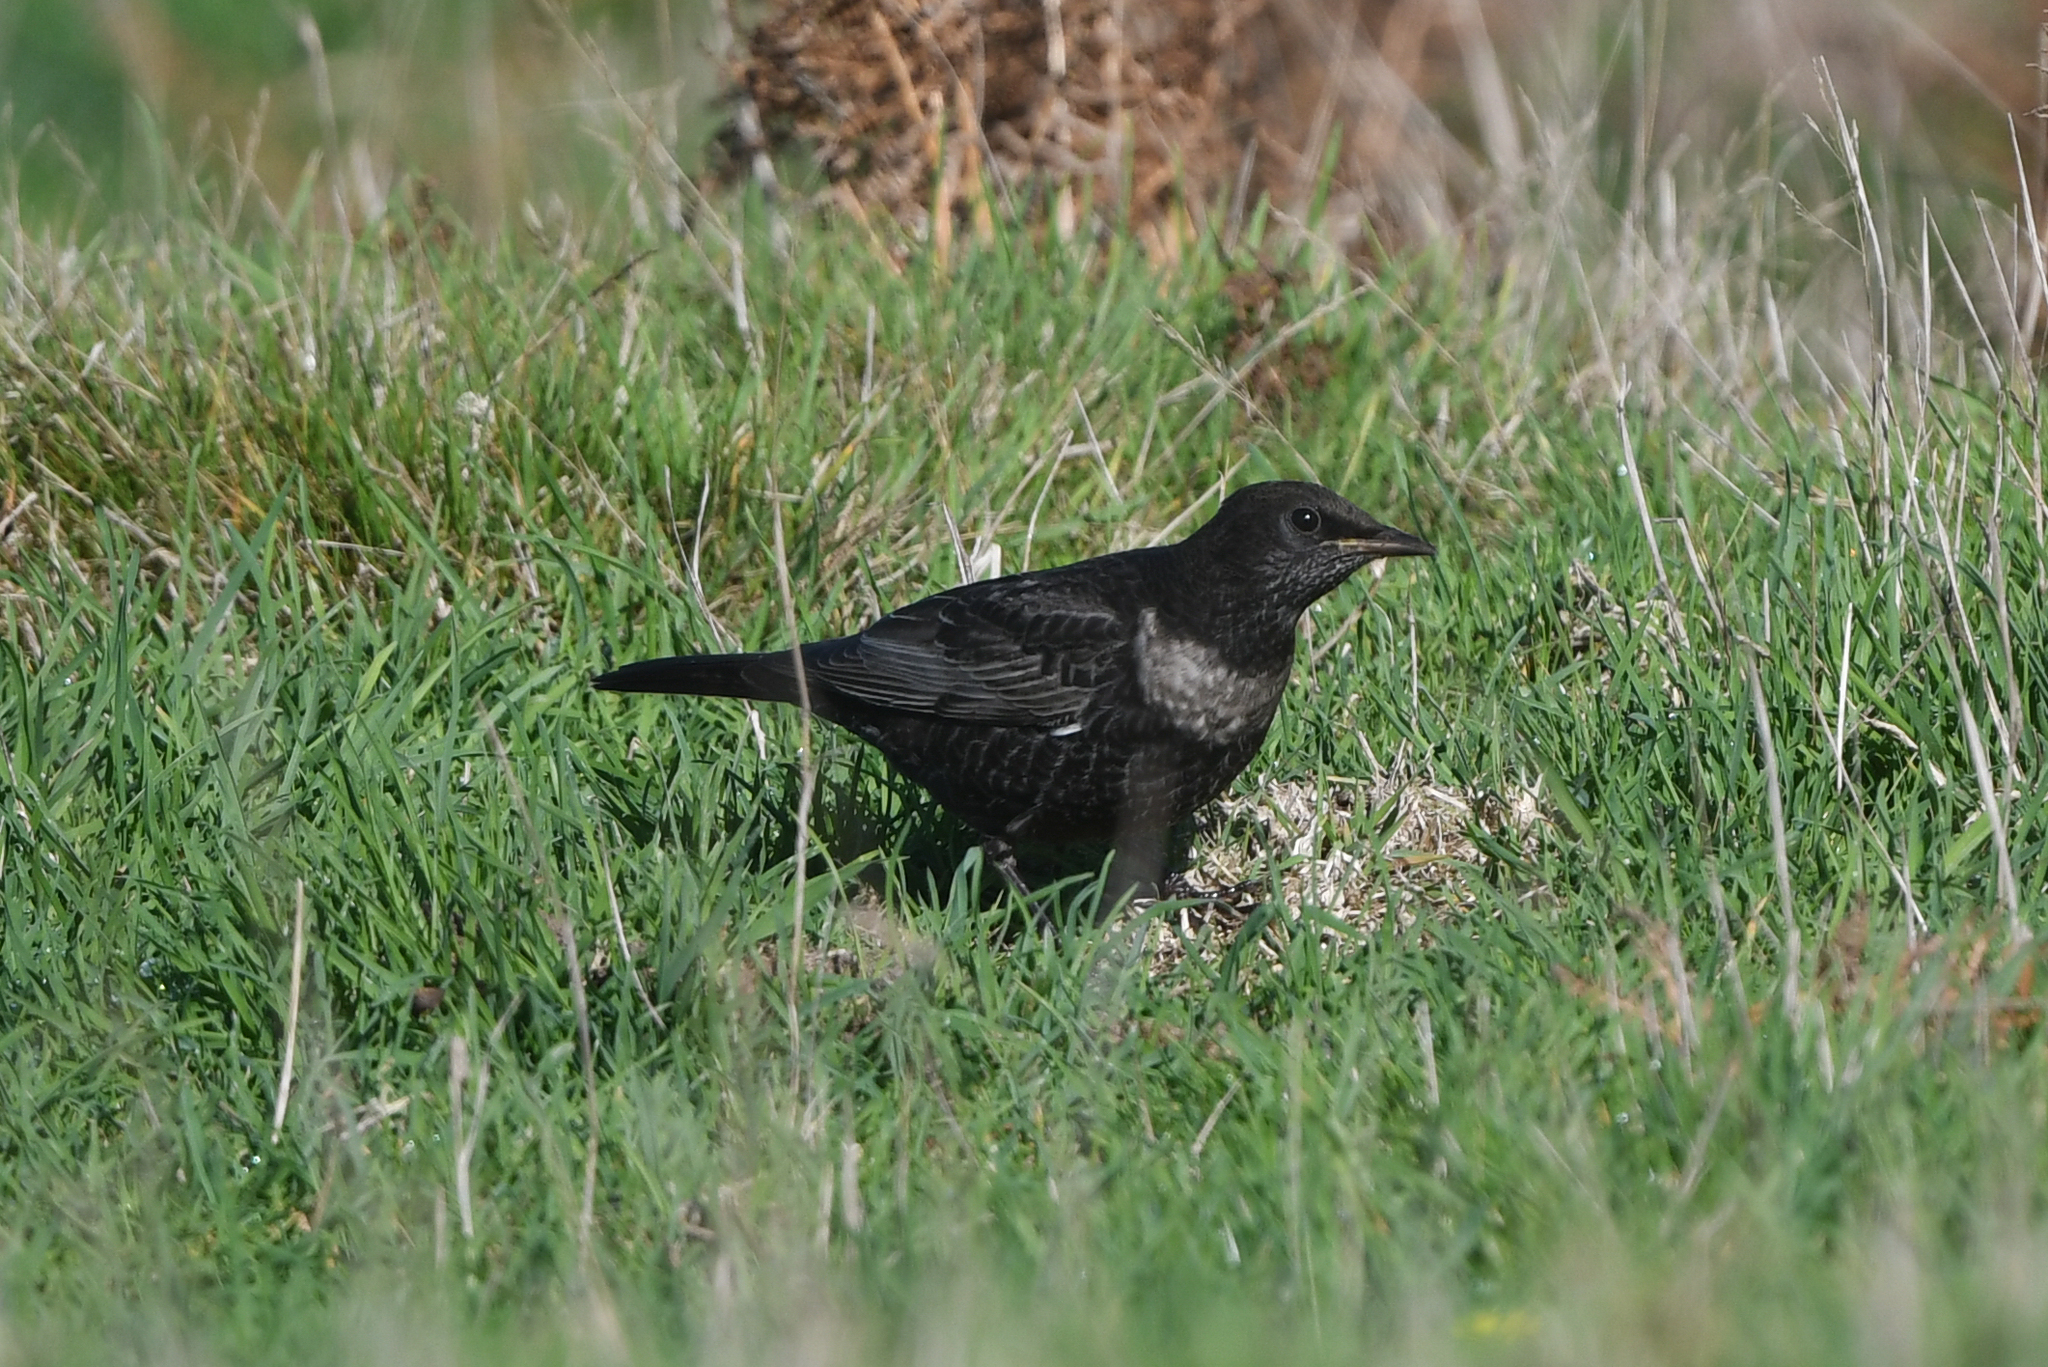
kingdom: Animalia
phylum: Chordata
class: Aves
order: Passeriformes
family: Turdidae
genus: Turdus
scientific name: Turdus torquatus
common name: Ring ouzel
